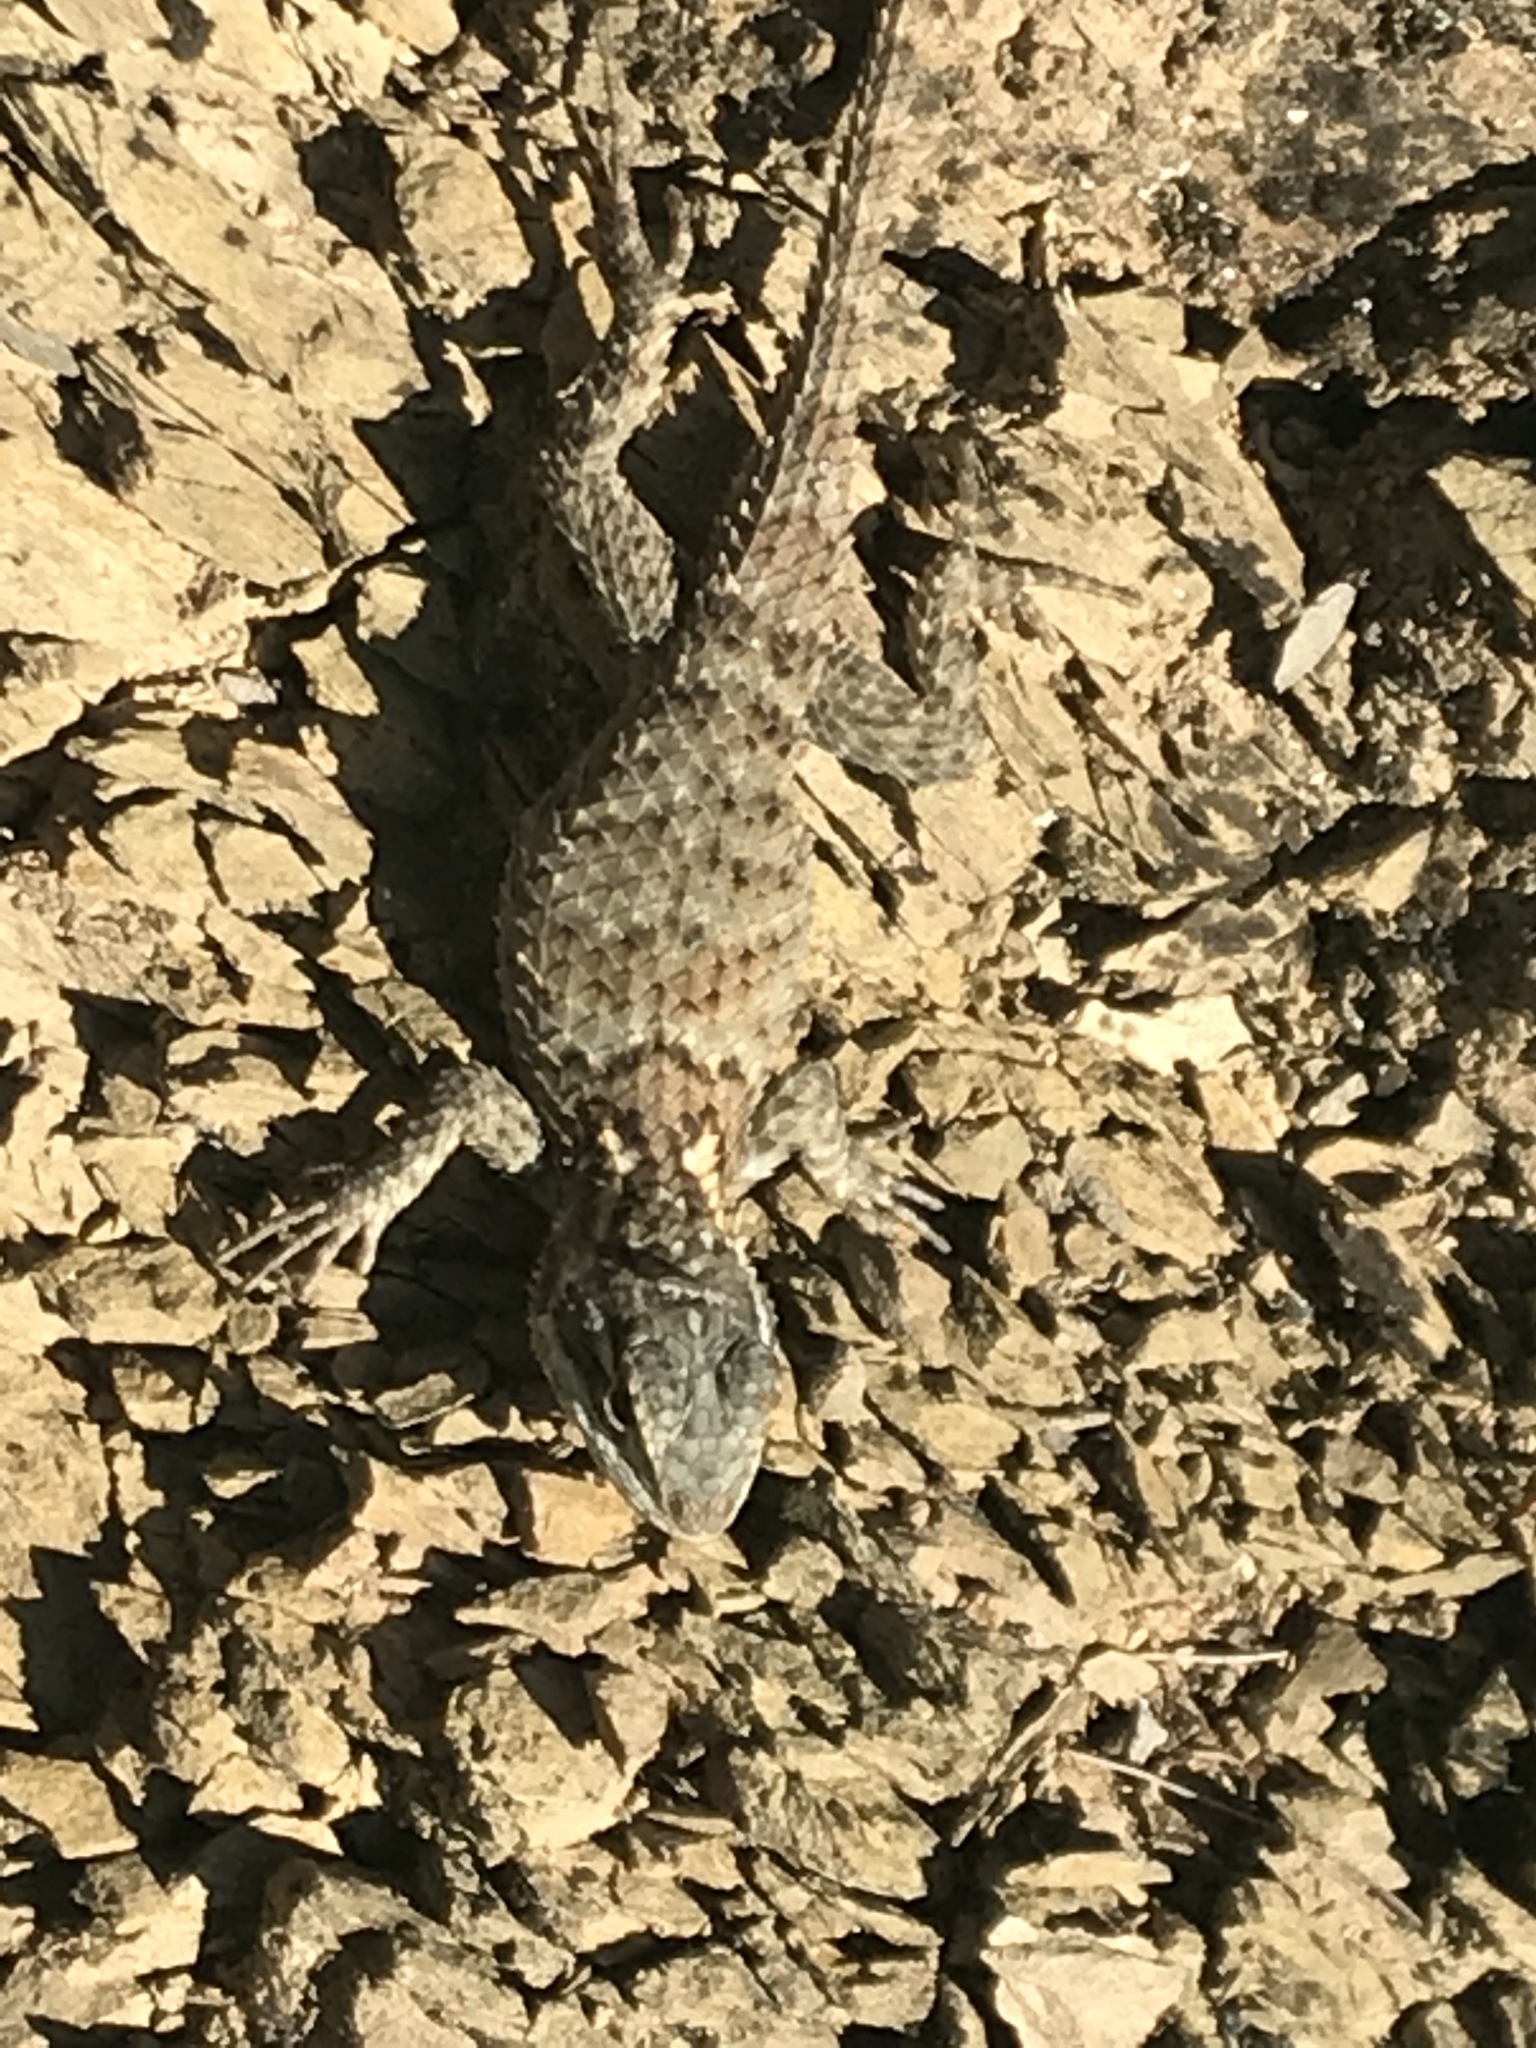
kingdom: Animalia
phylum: Chordata
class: Squamata
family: Phrynosomatidae
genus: Sceloporus
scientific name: Sceloporus torquatus
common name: Central plateau torquate lizard [melanogaster]
